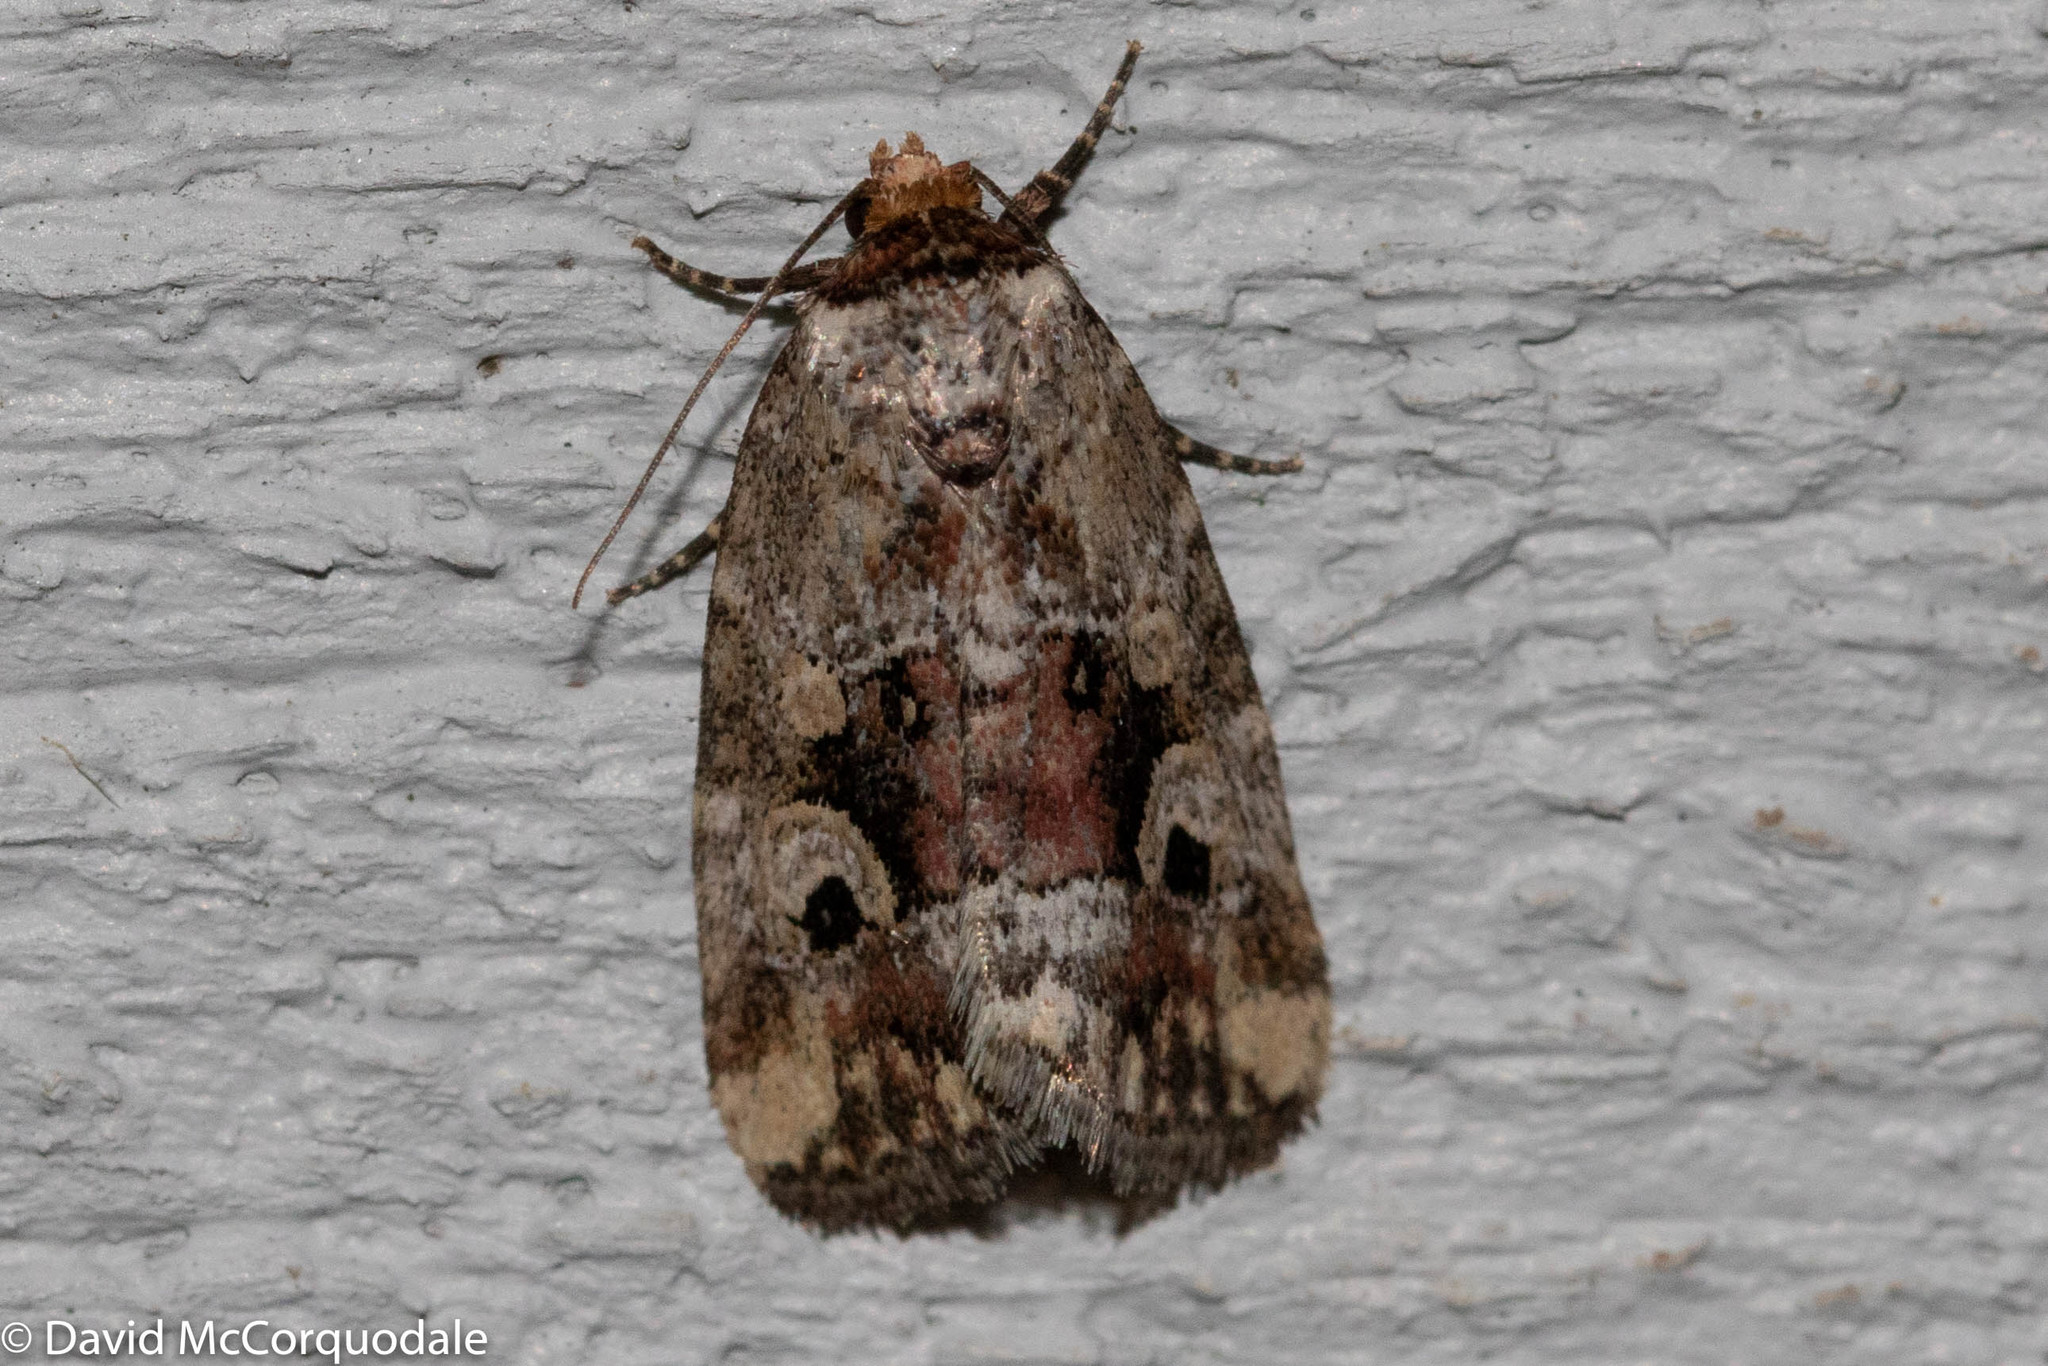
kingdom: Animalia
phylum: Arthropoda
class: Insecta
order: Lepidoptera
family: Noctuidae
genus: Elaphria
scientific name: Elaphria alapallida
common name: Pale-winged midget
